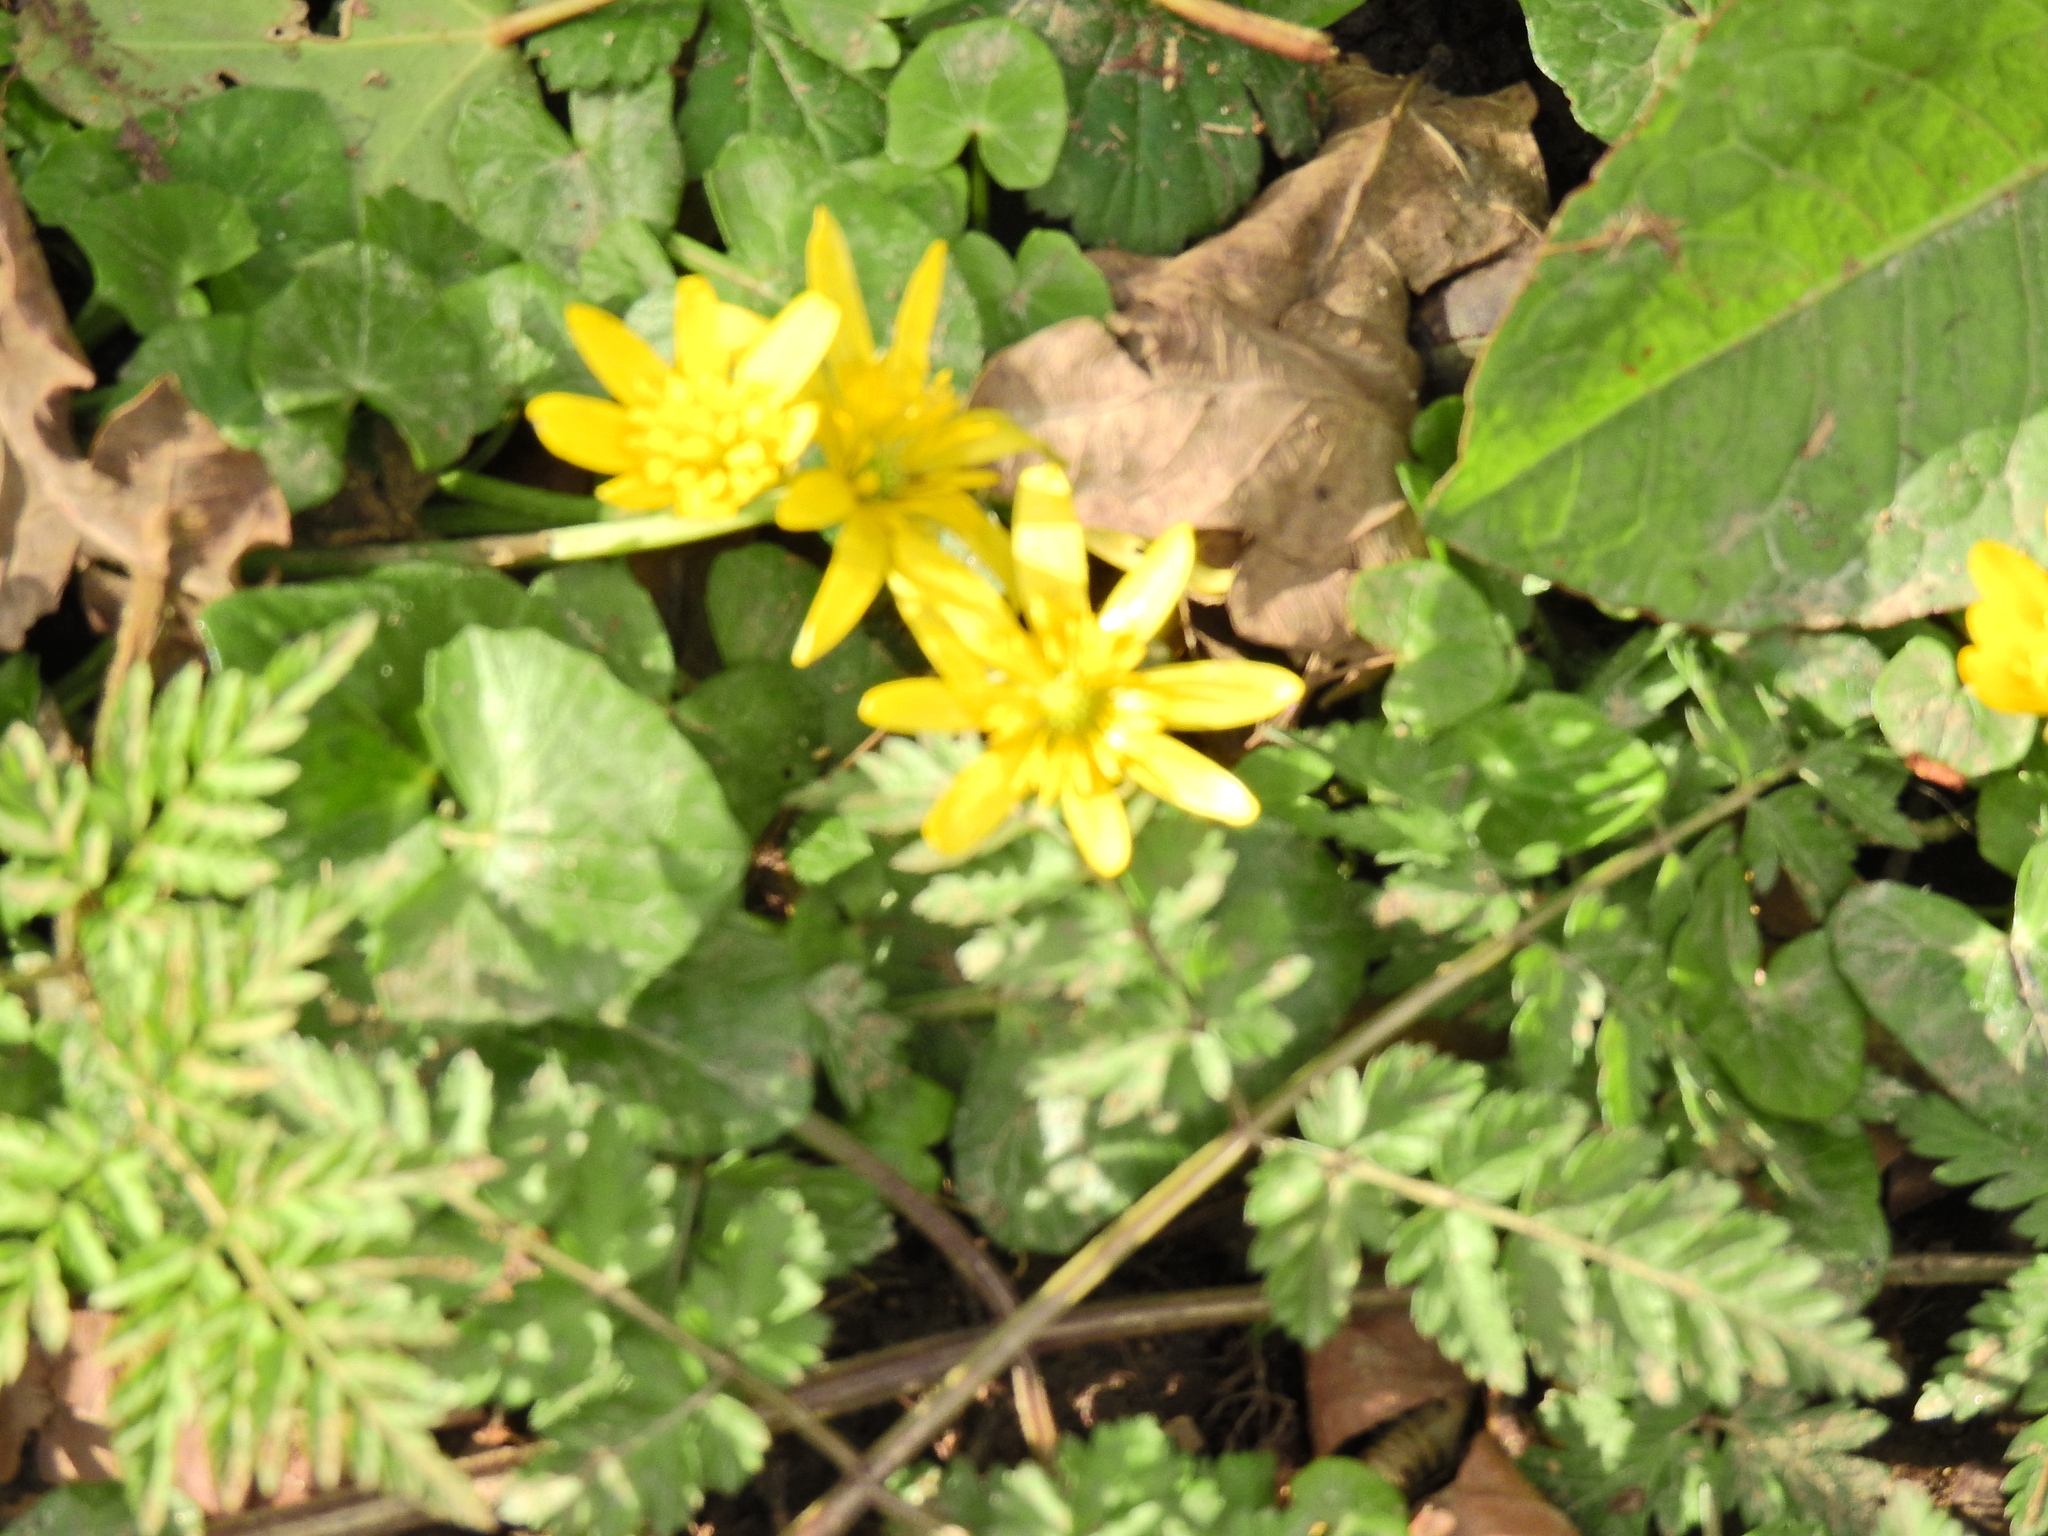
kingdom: Plantae
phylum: Tracheophyta
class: Magnoliopsida
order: Ranunculales
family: Ranunculaceae
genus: Ficaria
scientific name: Ficaria verna
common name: Lesser celandine
